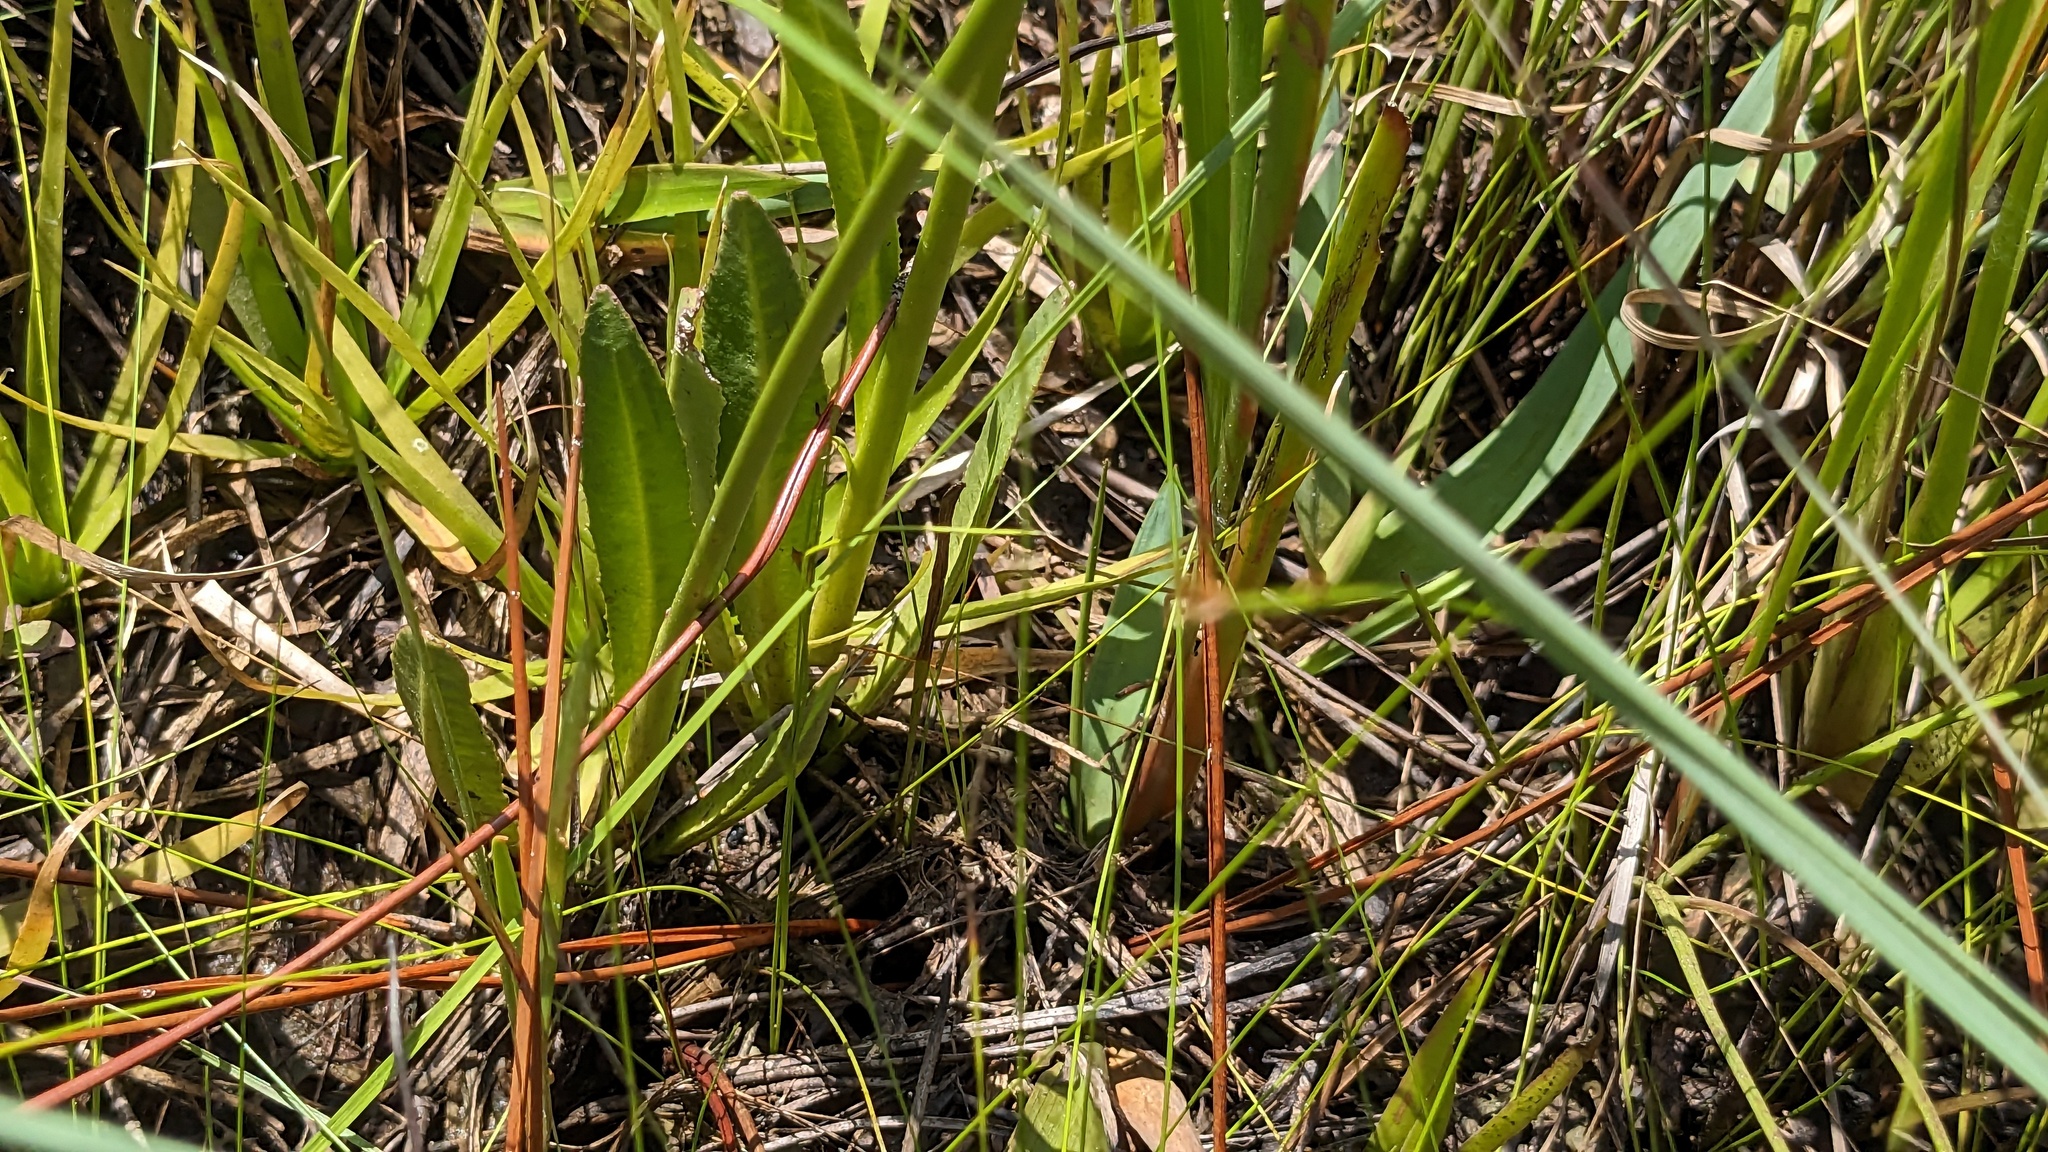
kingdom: Plantae
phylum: Tracheophyta
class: Magnoliopsida
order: Asterales
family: Campanulaceae
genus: Lobelia
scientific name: Lobelia floridana
